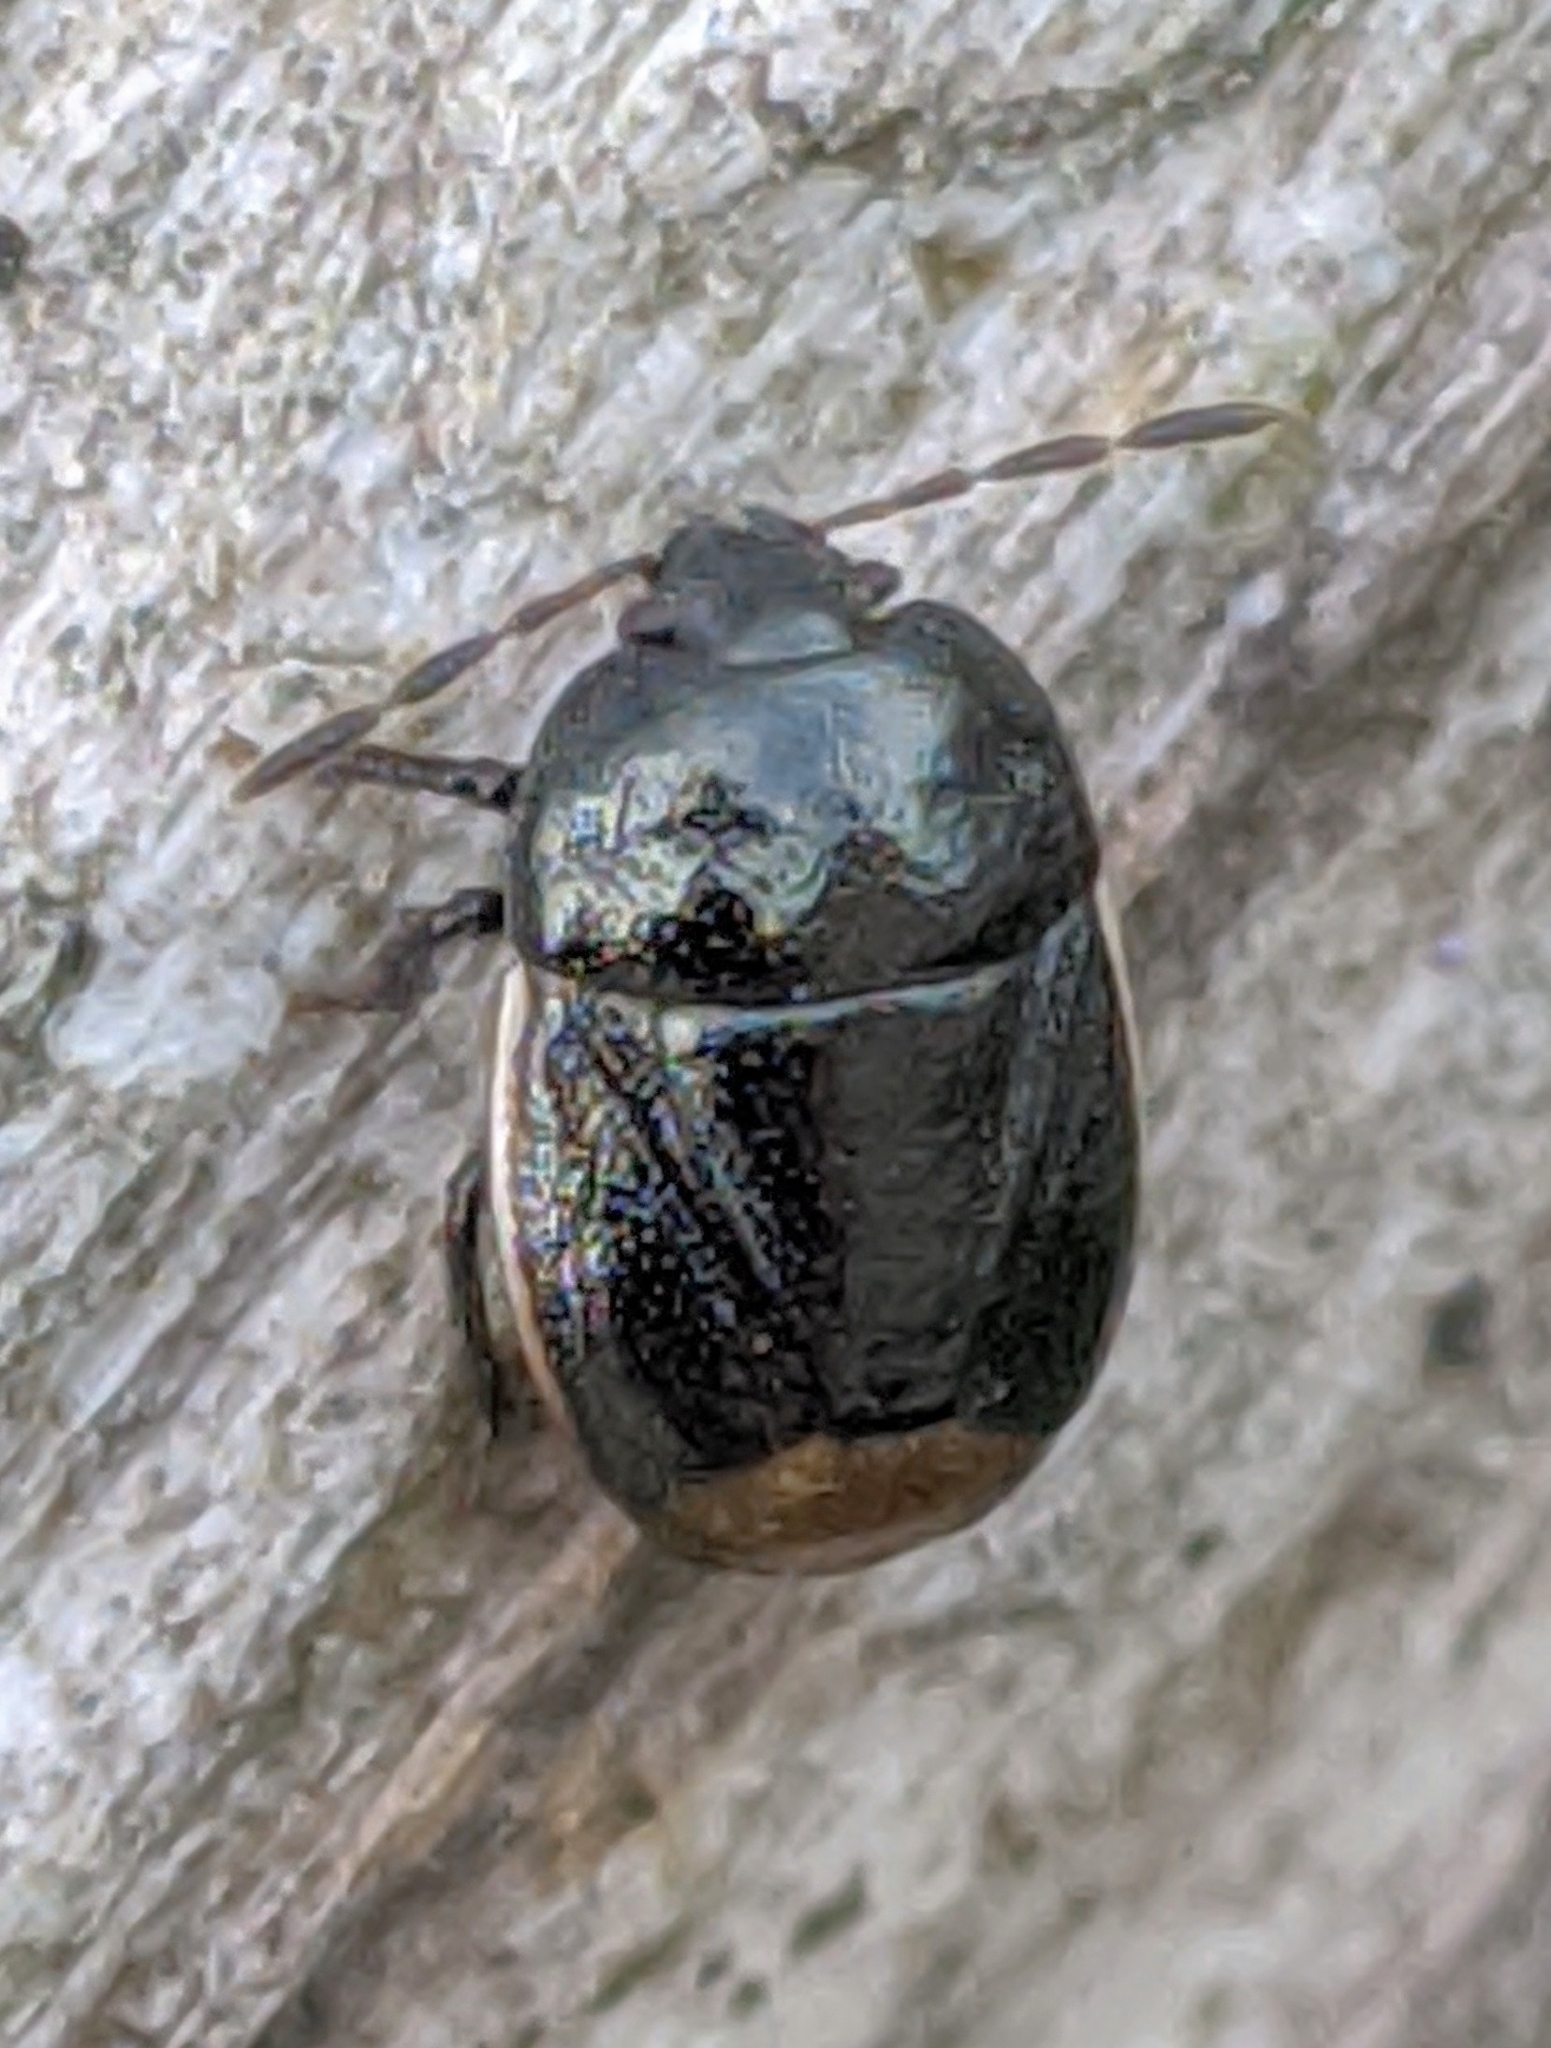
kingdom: Animalia
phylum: Arthropoda
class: Insecta
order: Hemiptera
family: Cydnidae
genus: Legnotus
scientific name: Legnotus limbosus
